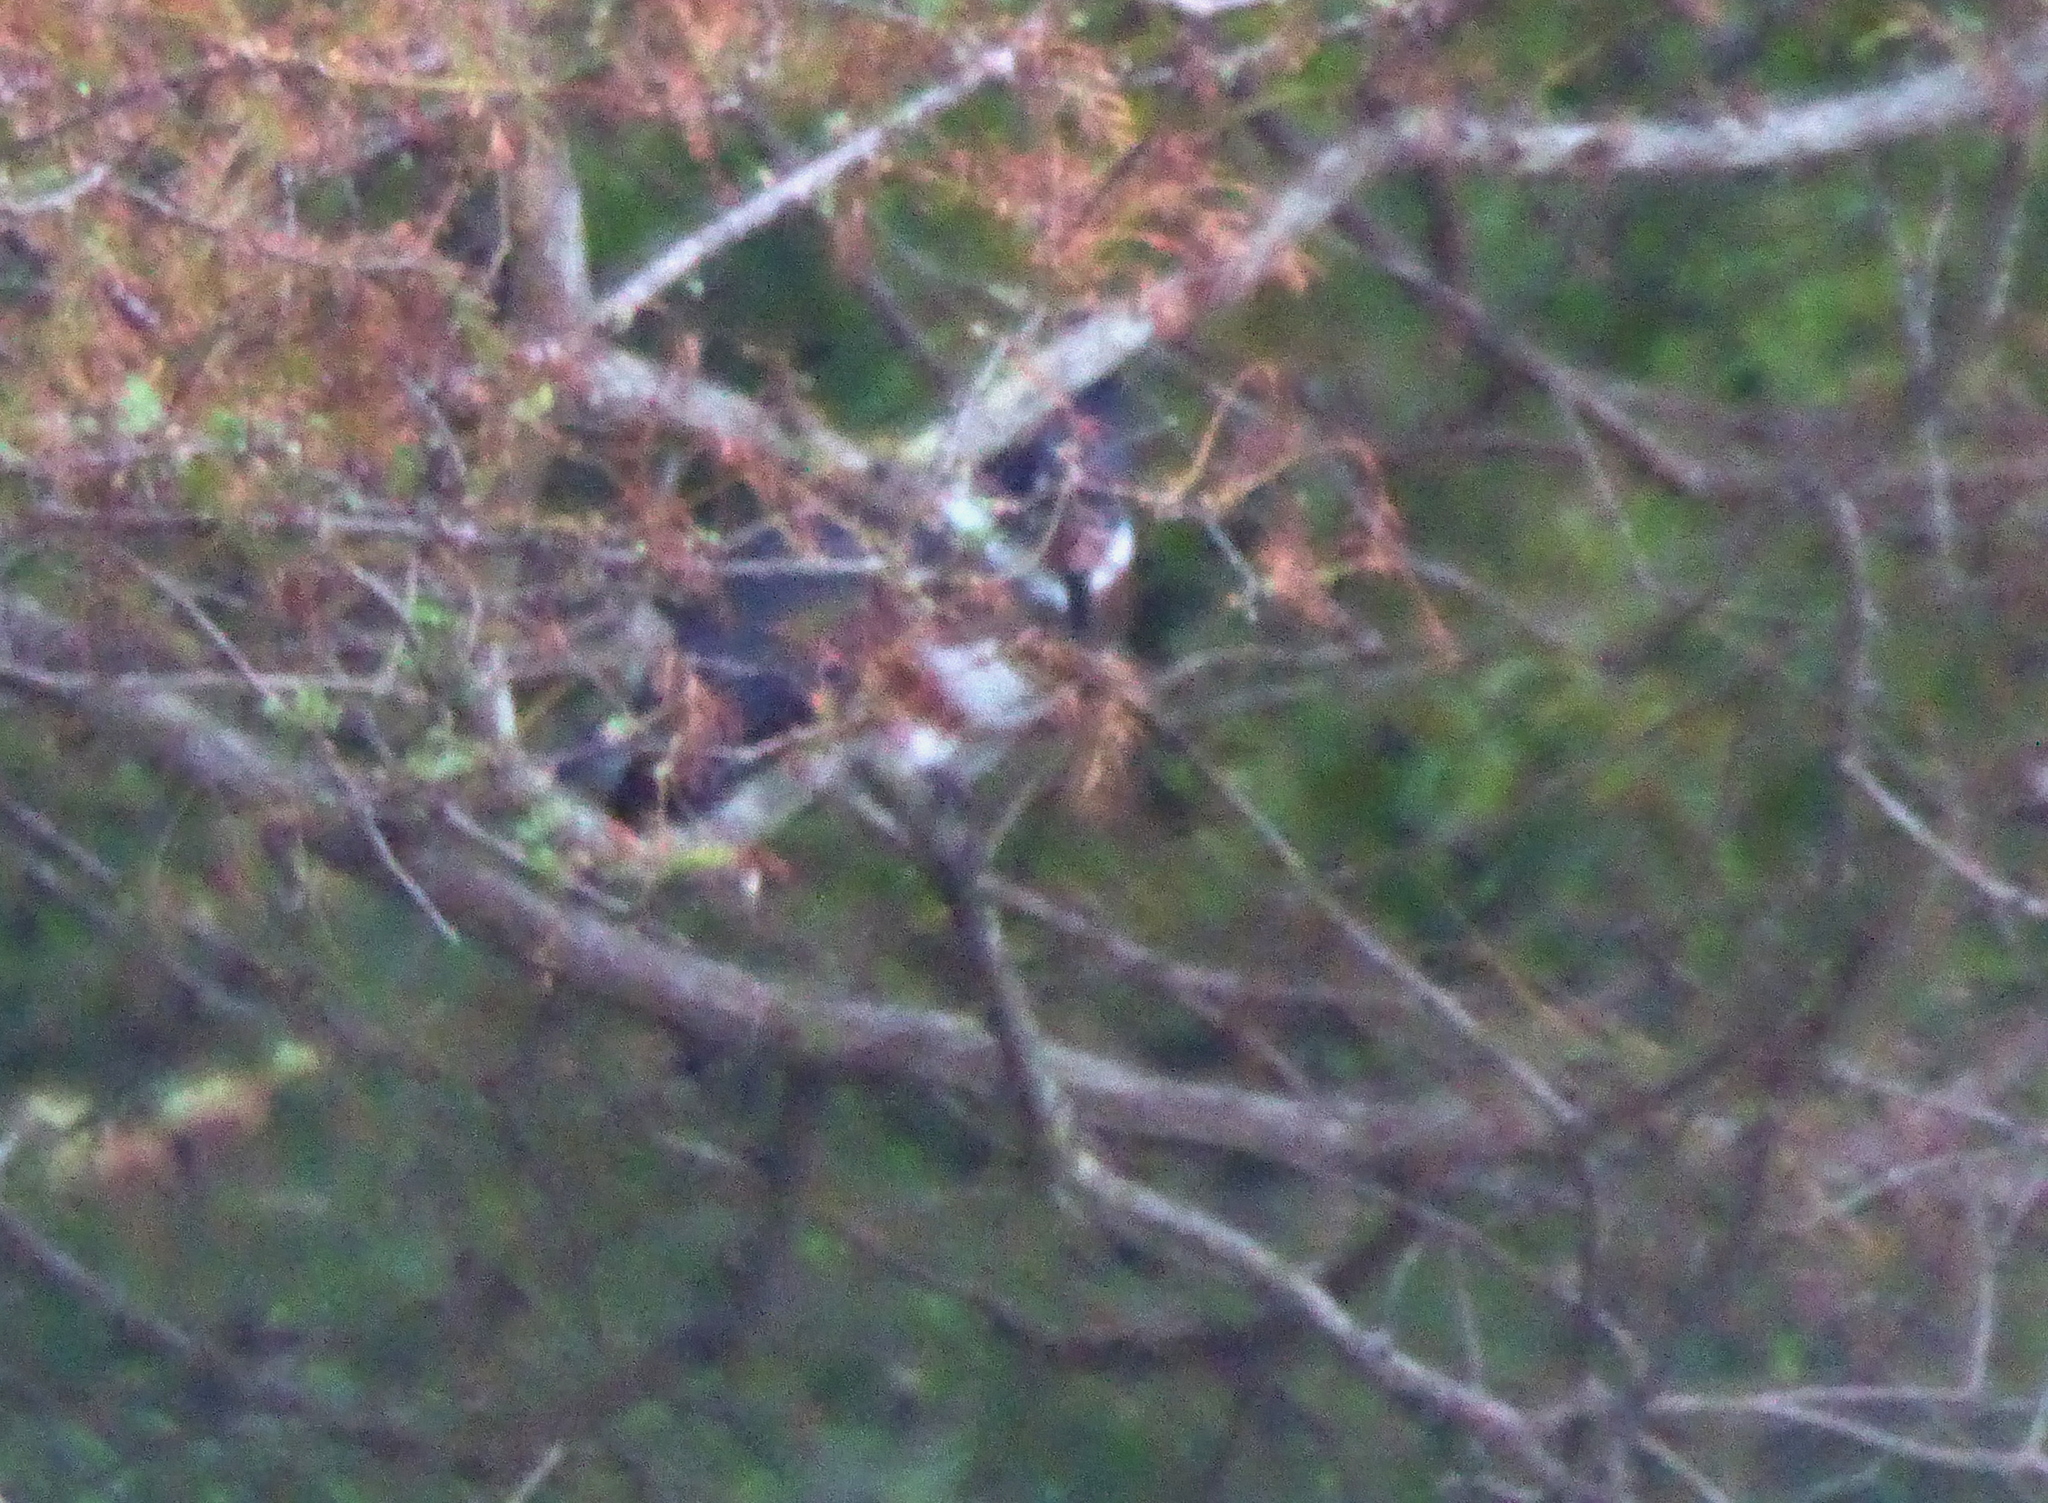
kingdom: Animalia
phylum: Chordata
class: Aves
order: Coraciiformes
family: Alcedinidae
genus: Megaceryle
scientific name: Megaceryle alcyon
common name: Belted kingfisher
